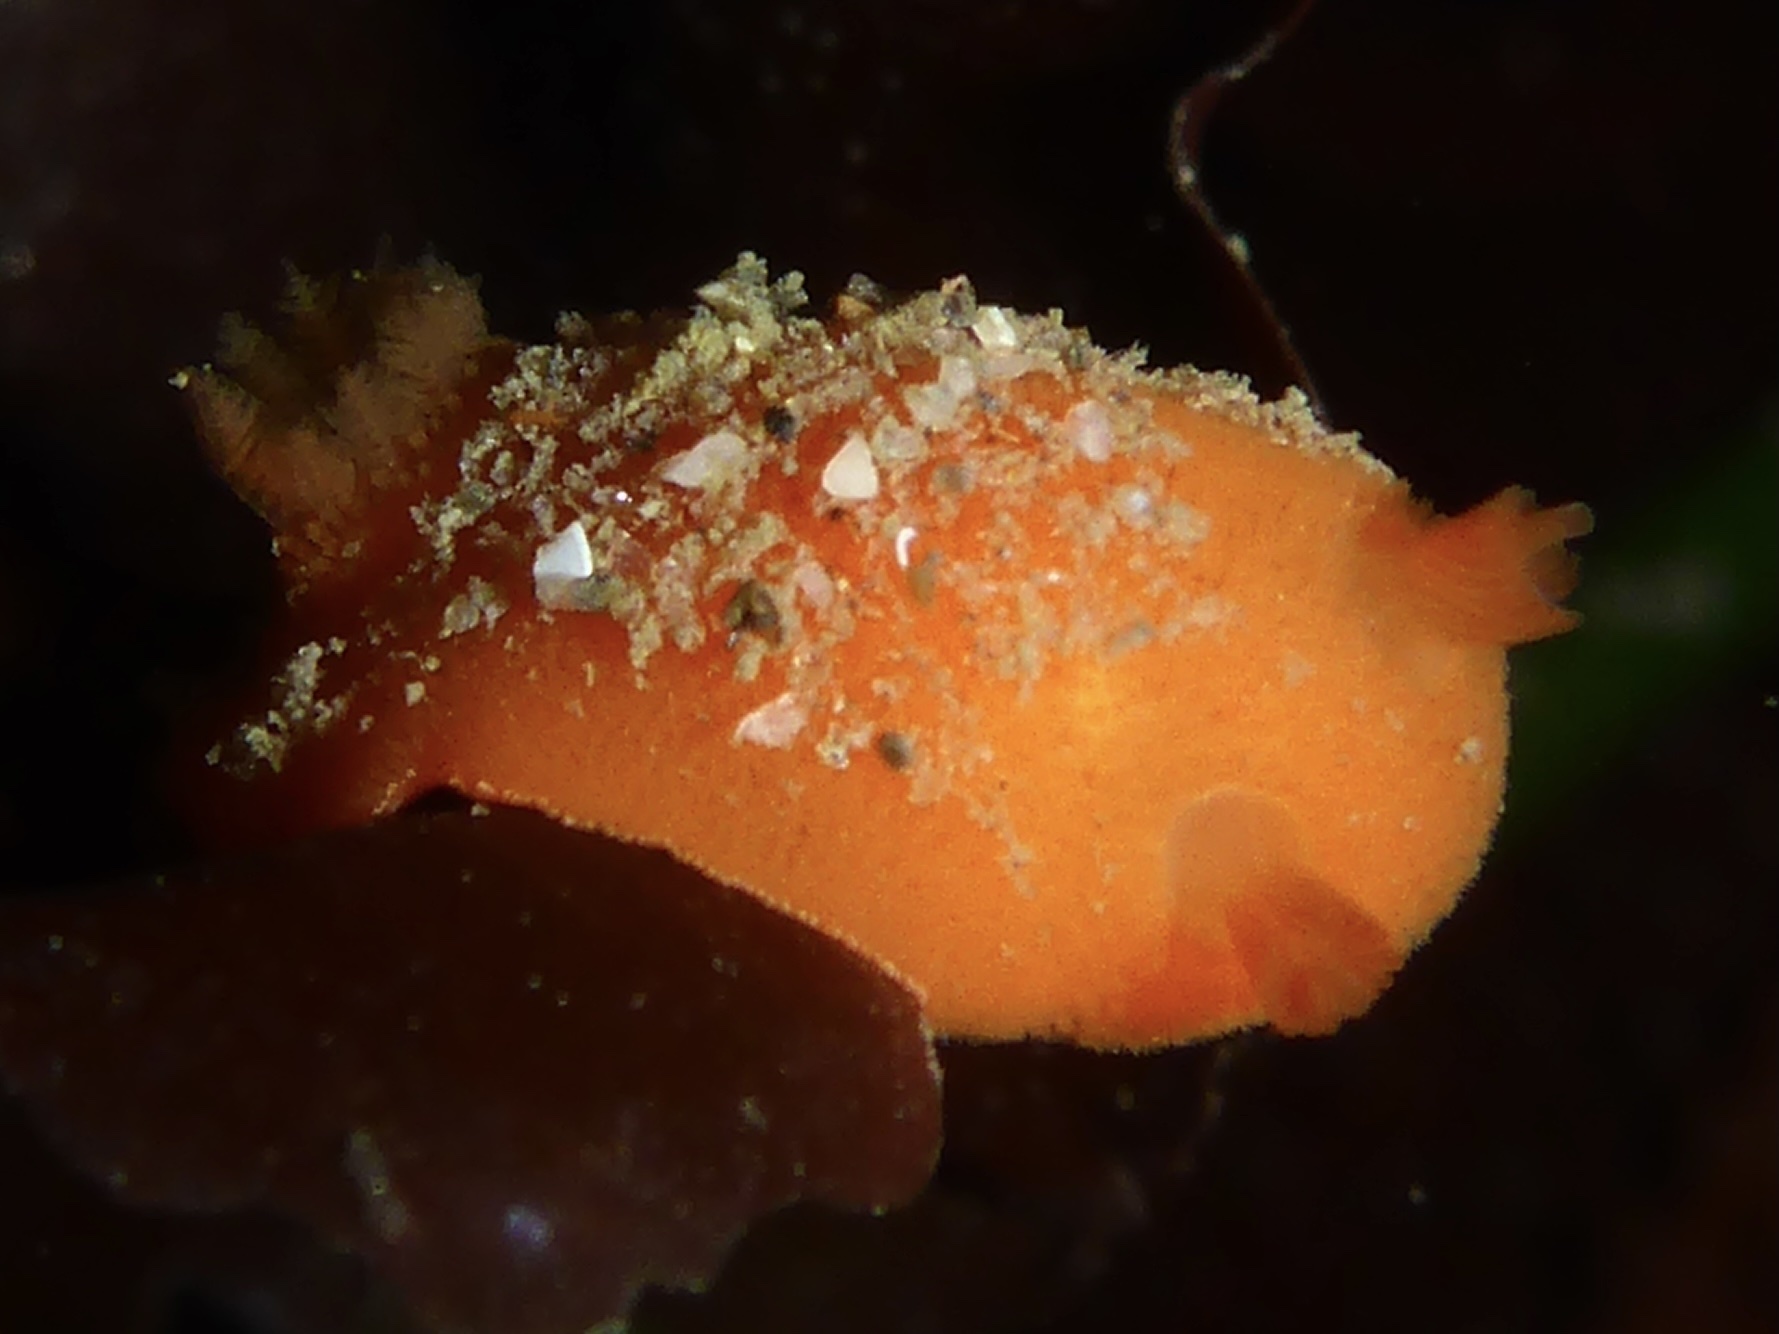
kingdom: Animalia
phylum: Mollusca
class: Gastropoda
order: Nudibranchia
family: Discodorididae
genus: Rostanga
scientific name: Rostanga pulchra
